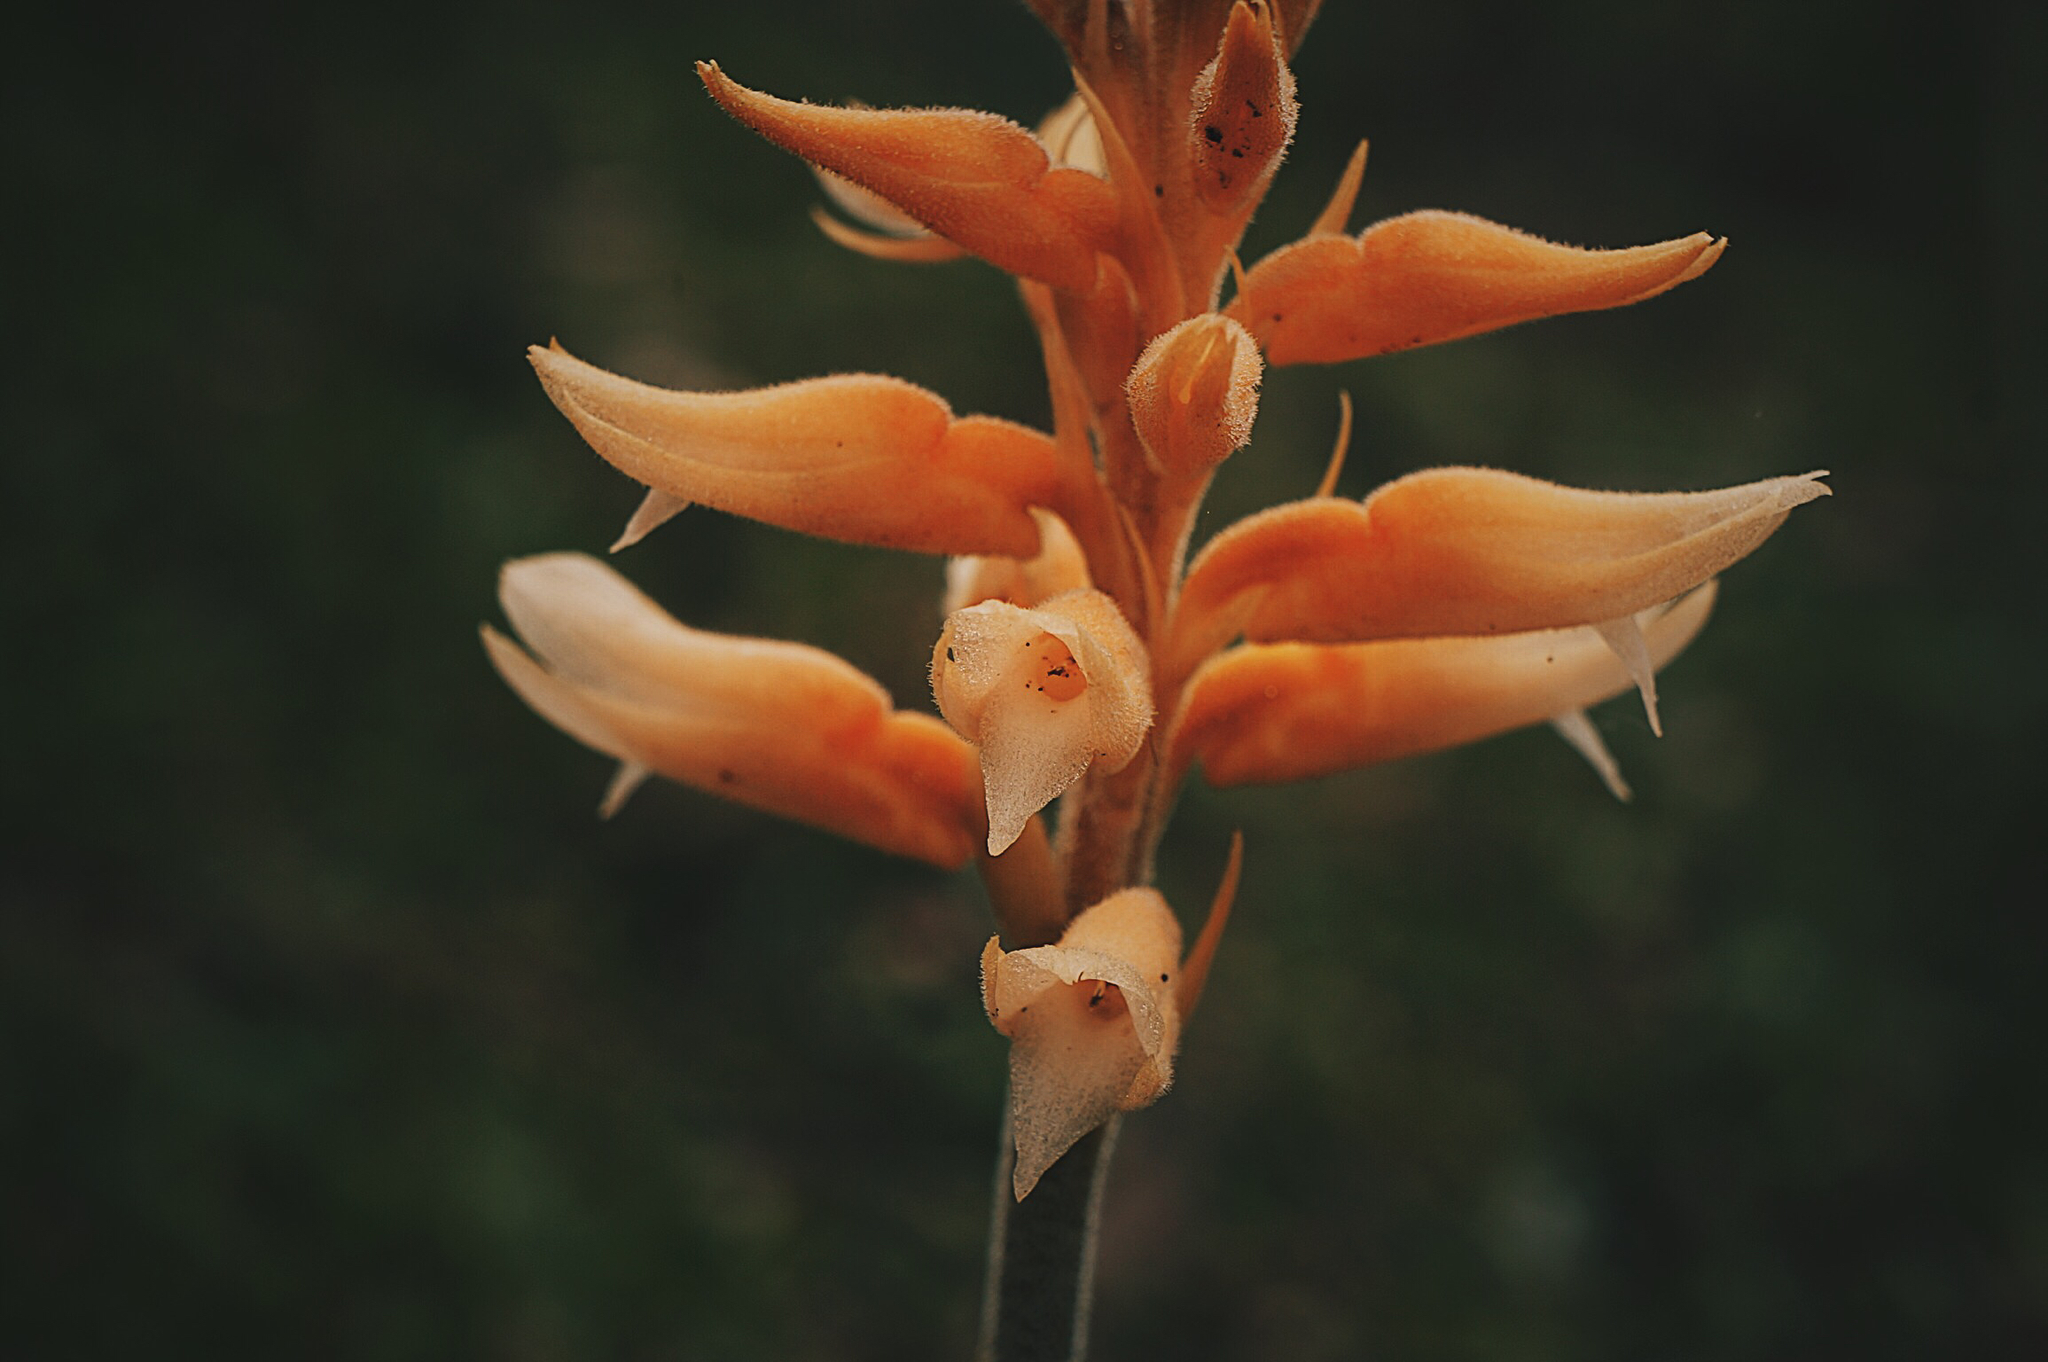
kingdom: Plantae
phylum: Tracheophyta
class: Liliopsida
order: Asparagales
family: Orchidaceae
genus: Sacoila
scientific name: Sacoila lanceolata
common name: Leafless beaked ladiestresses
